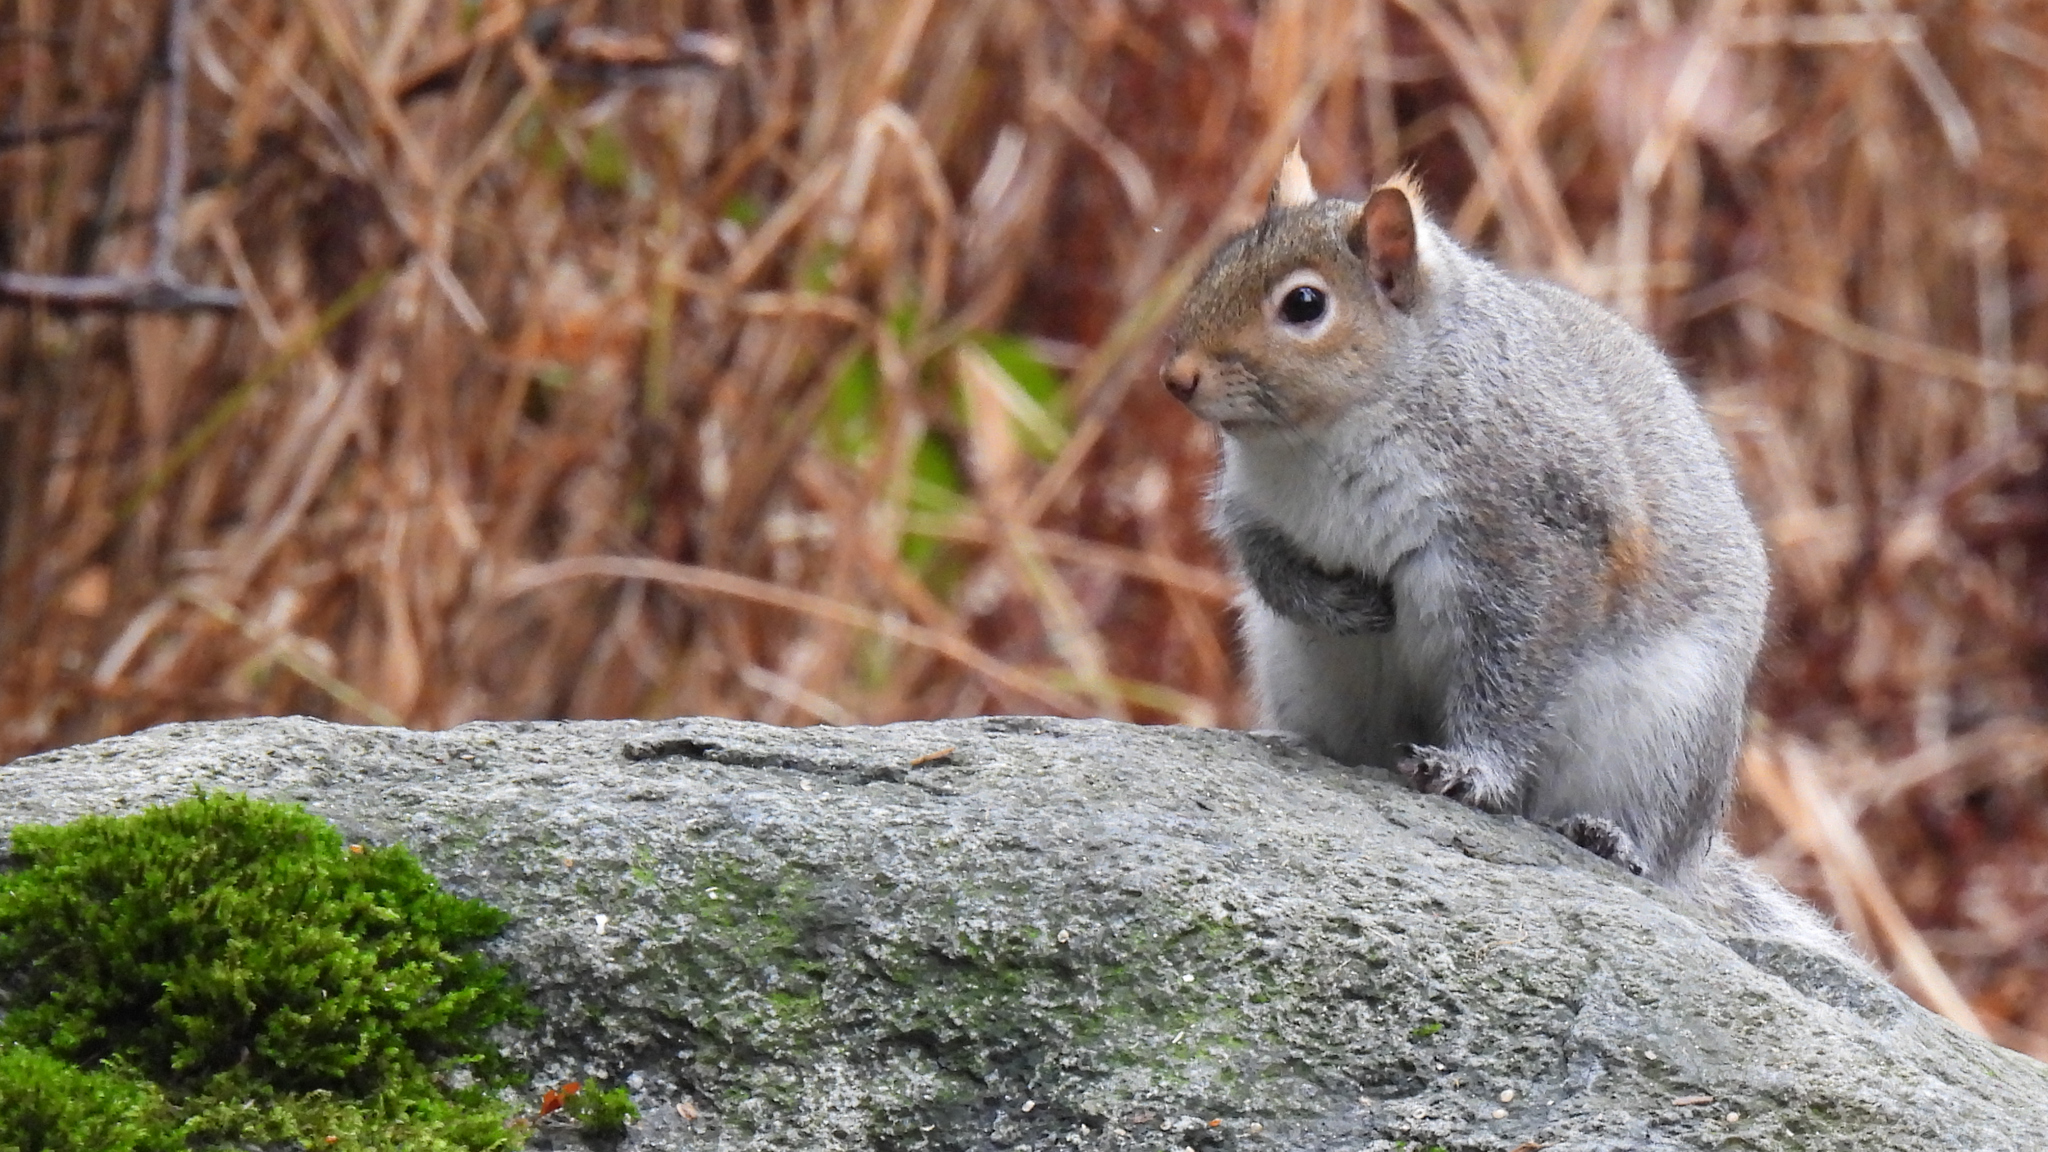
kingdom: Animalia
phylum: Chordata
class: Mammalia
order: Rodentia
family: Sciuridae
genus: Sciurus
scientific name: Sciurus carolinensis
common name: Eastern gray squirrel
